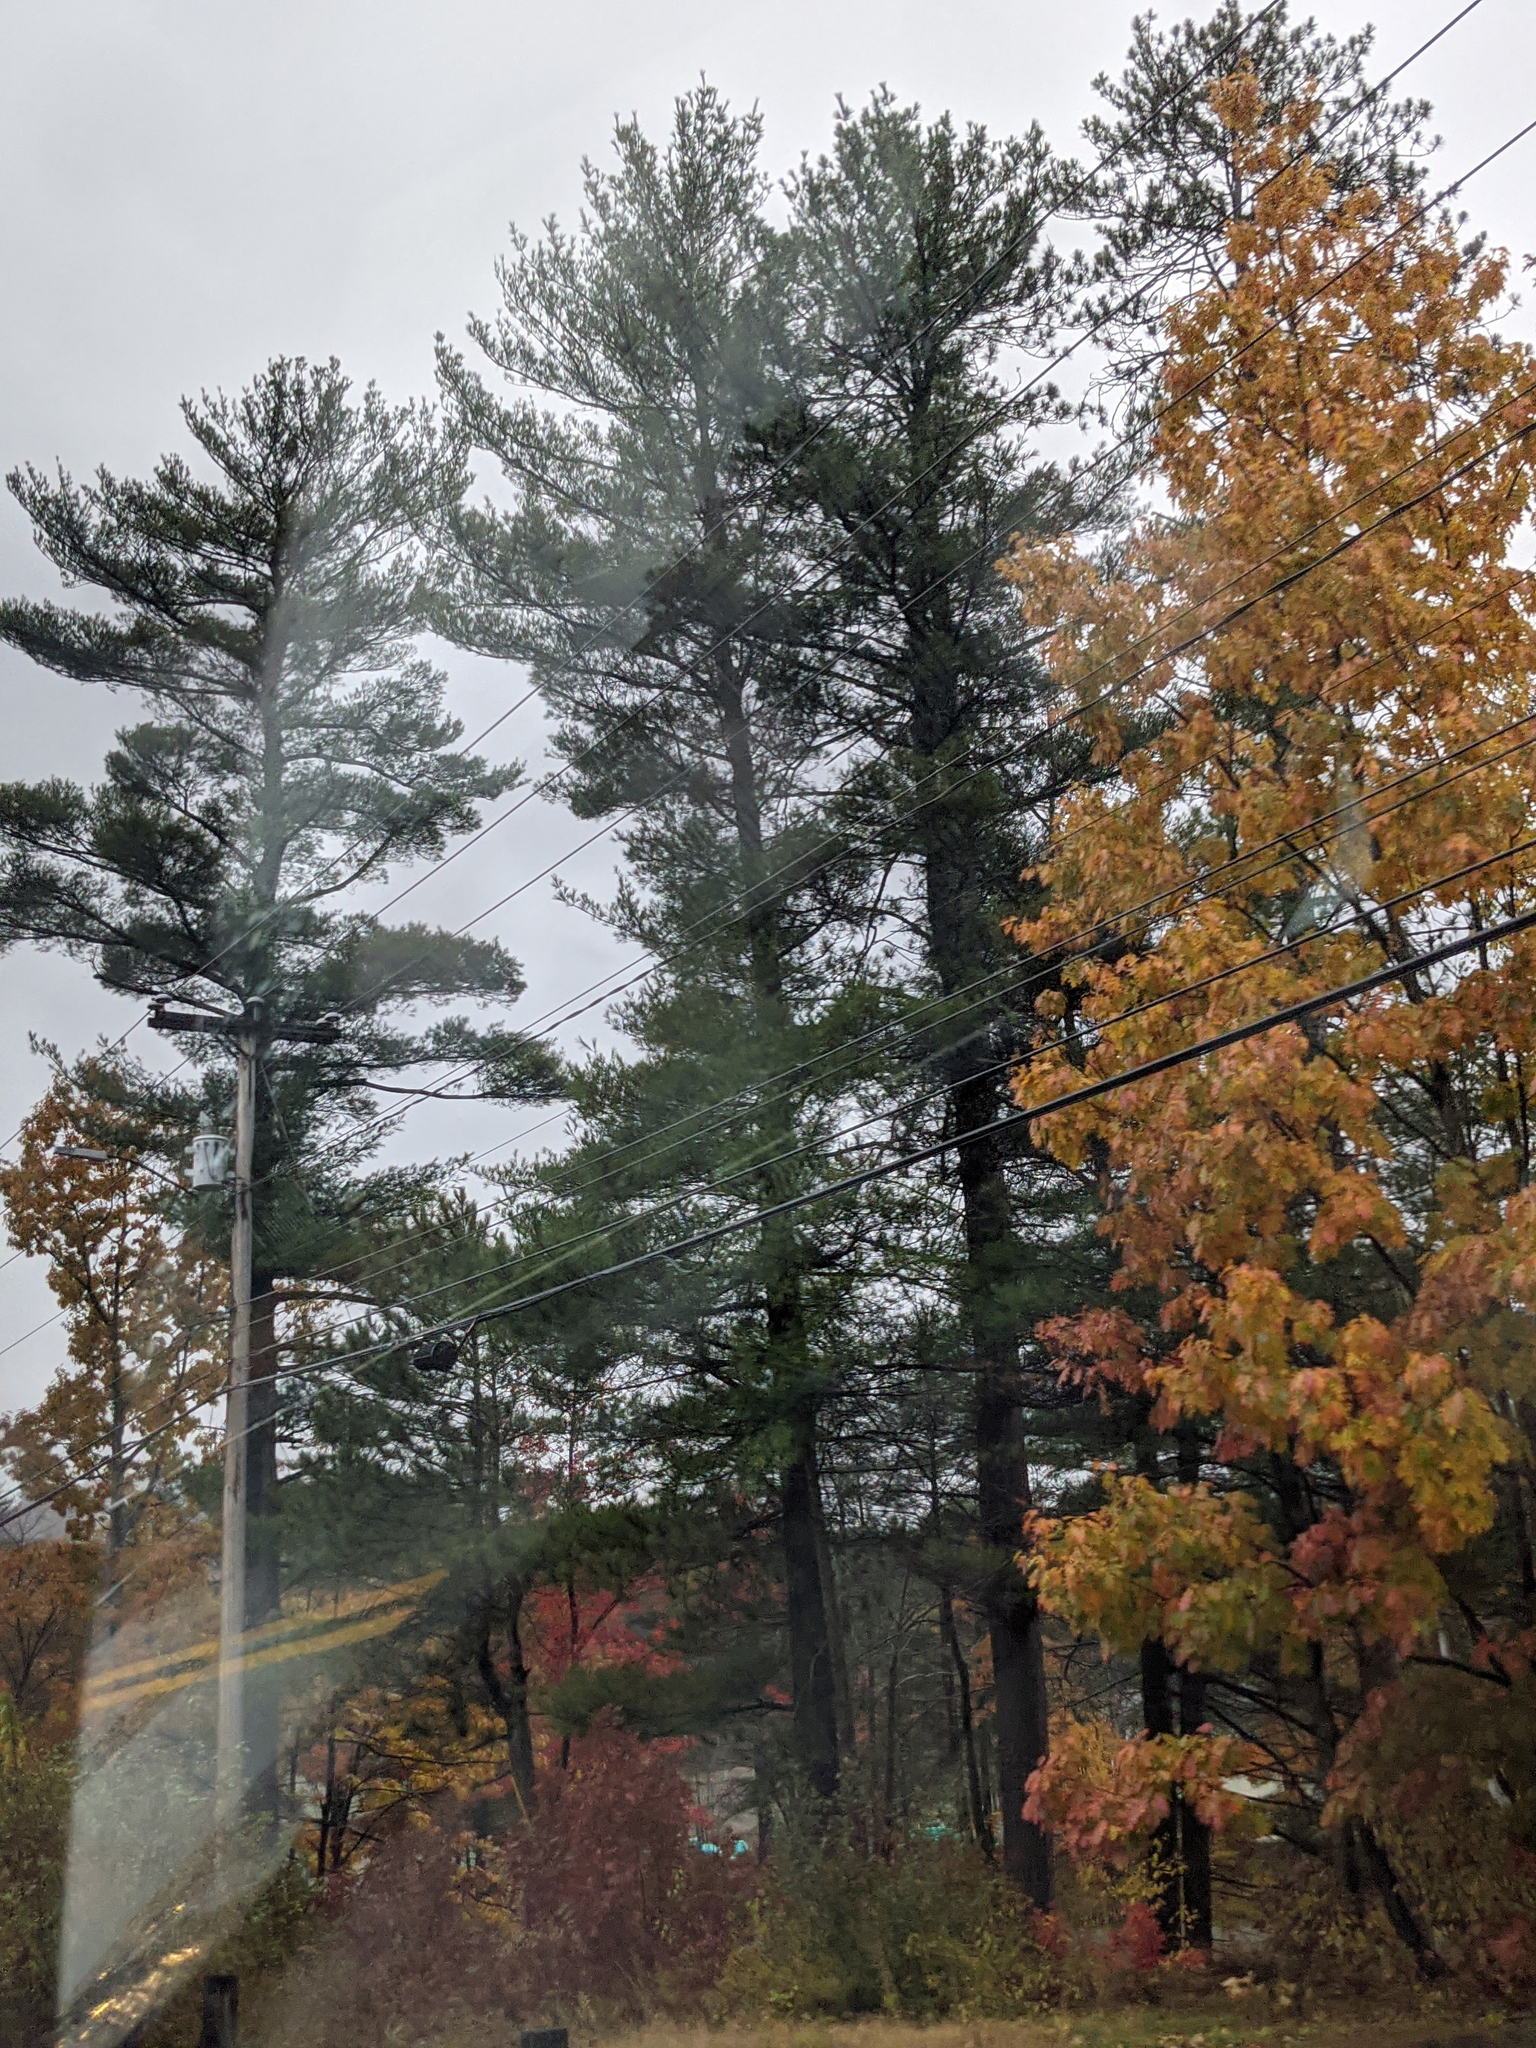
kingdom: Plantae
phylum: Tracheophyta
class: Pinopsida
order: Pinales
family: Pinaceae
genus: Pinus
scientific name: Pinus strobus
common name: Weymouth pine
